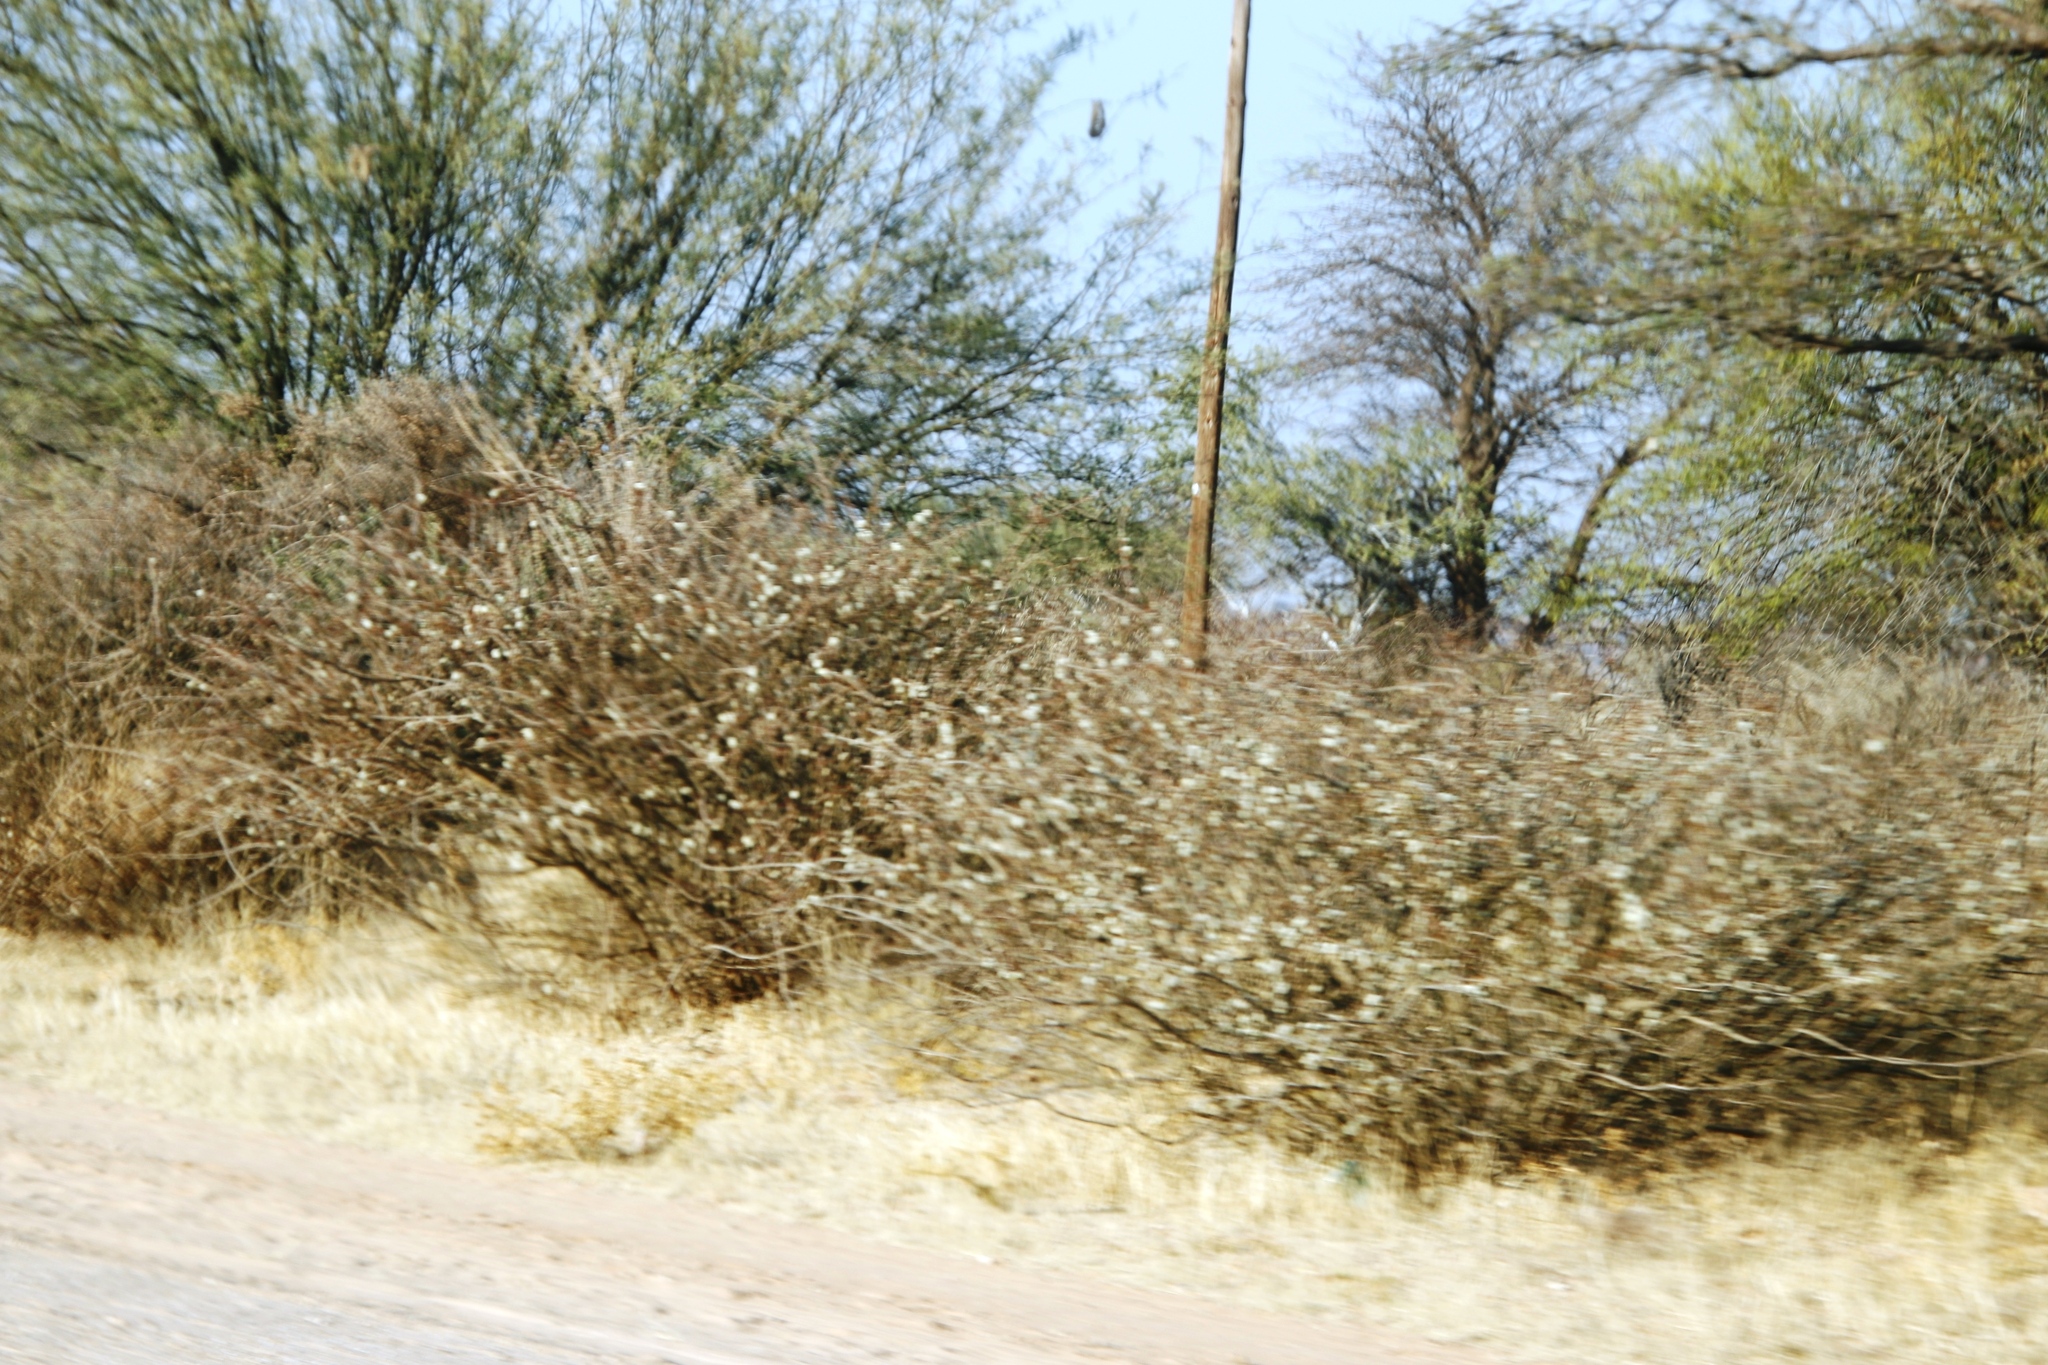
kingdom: Plantae
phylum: Tracheophyta
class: Magnoliopsida
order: Fabales
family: Fabaceae
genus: Senegalia
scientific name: Senegalia mellifera
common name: Hookthorn
